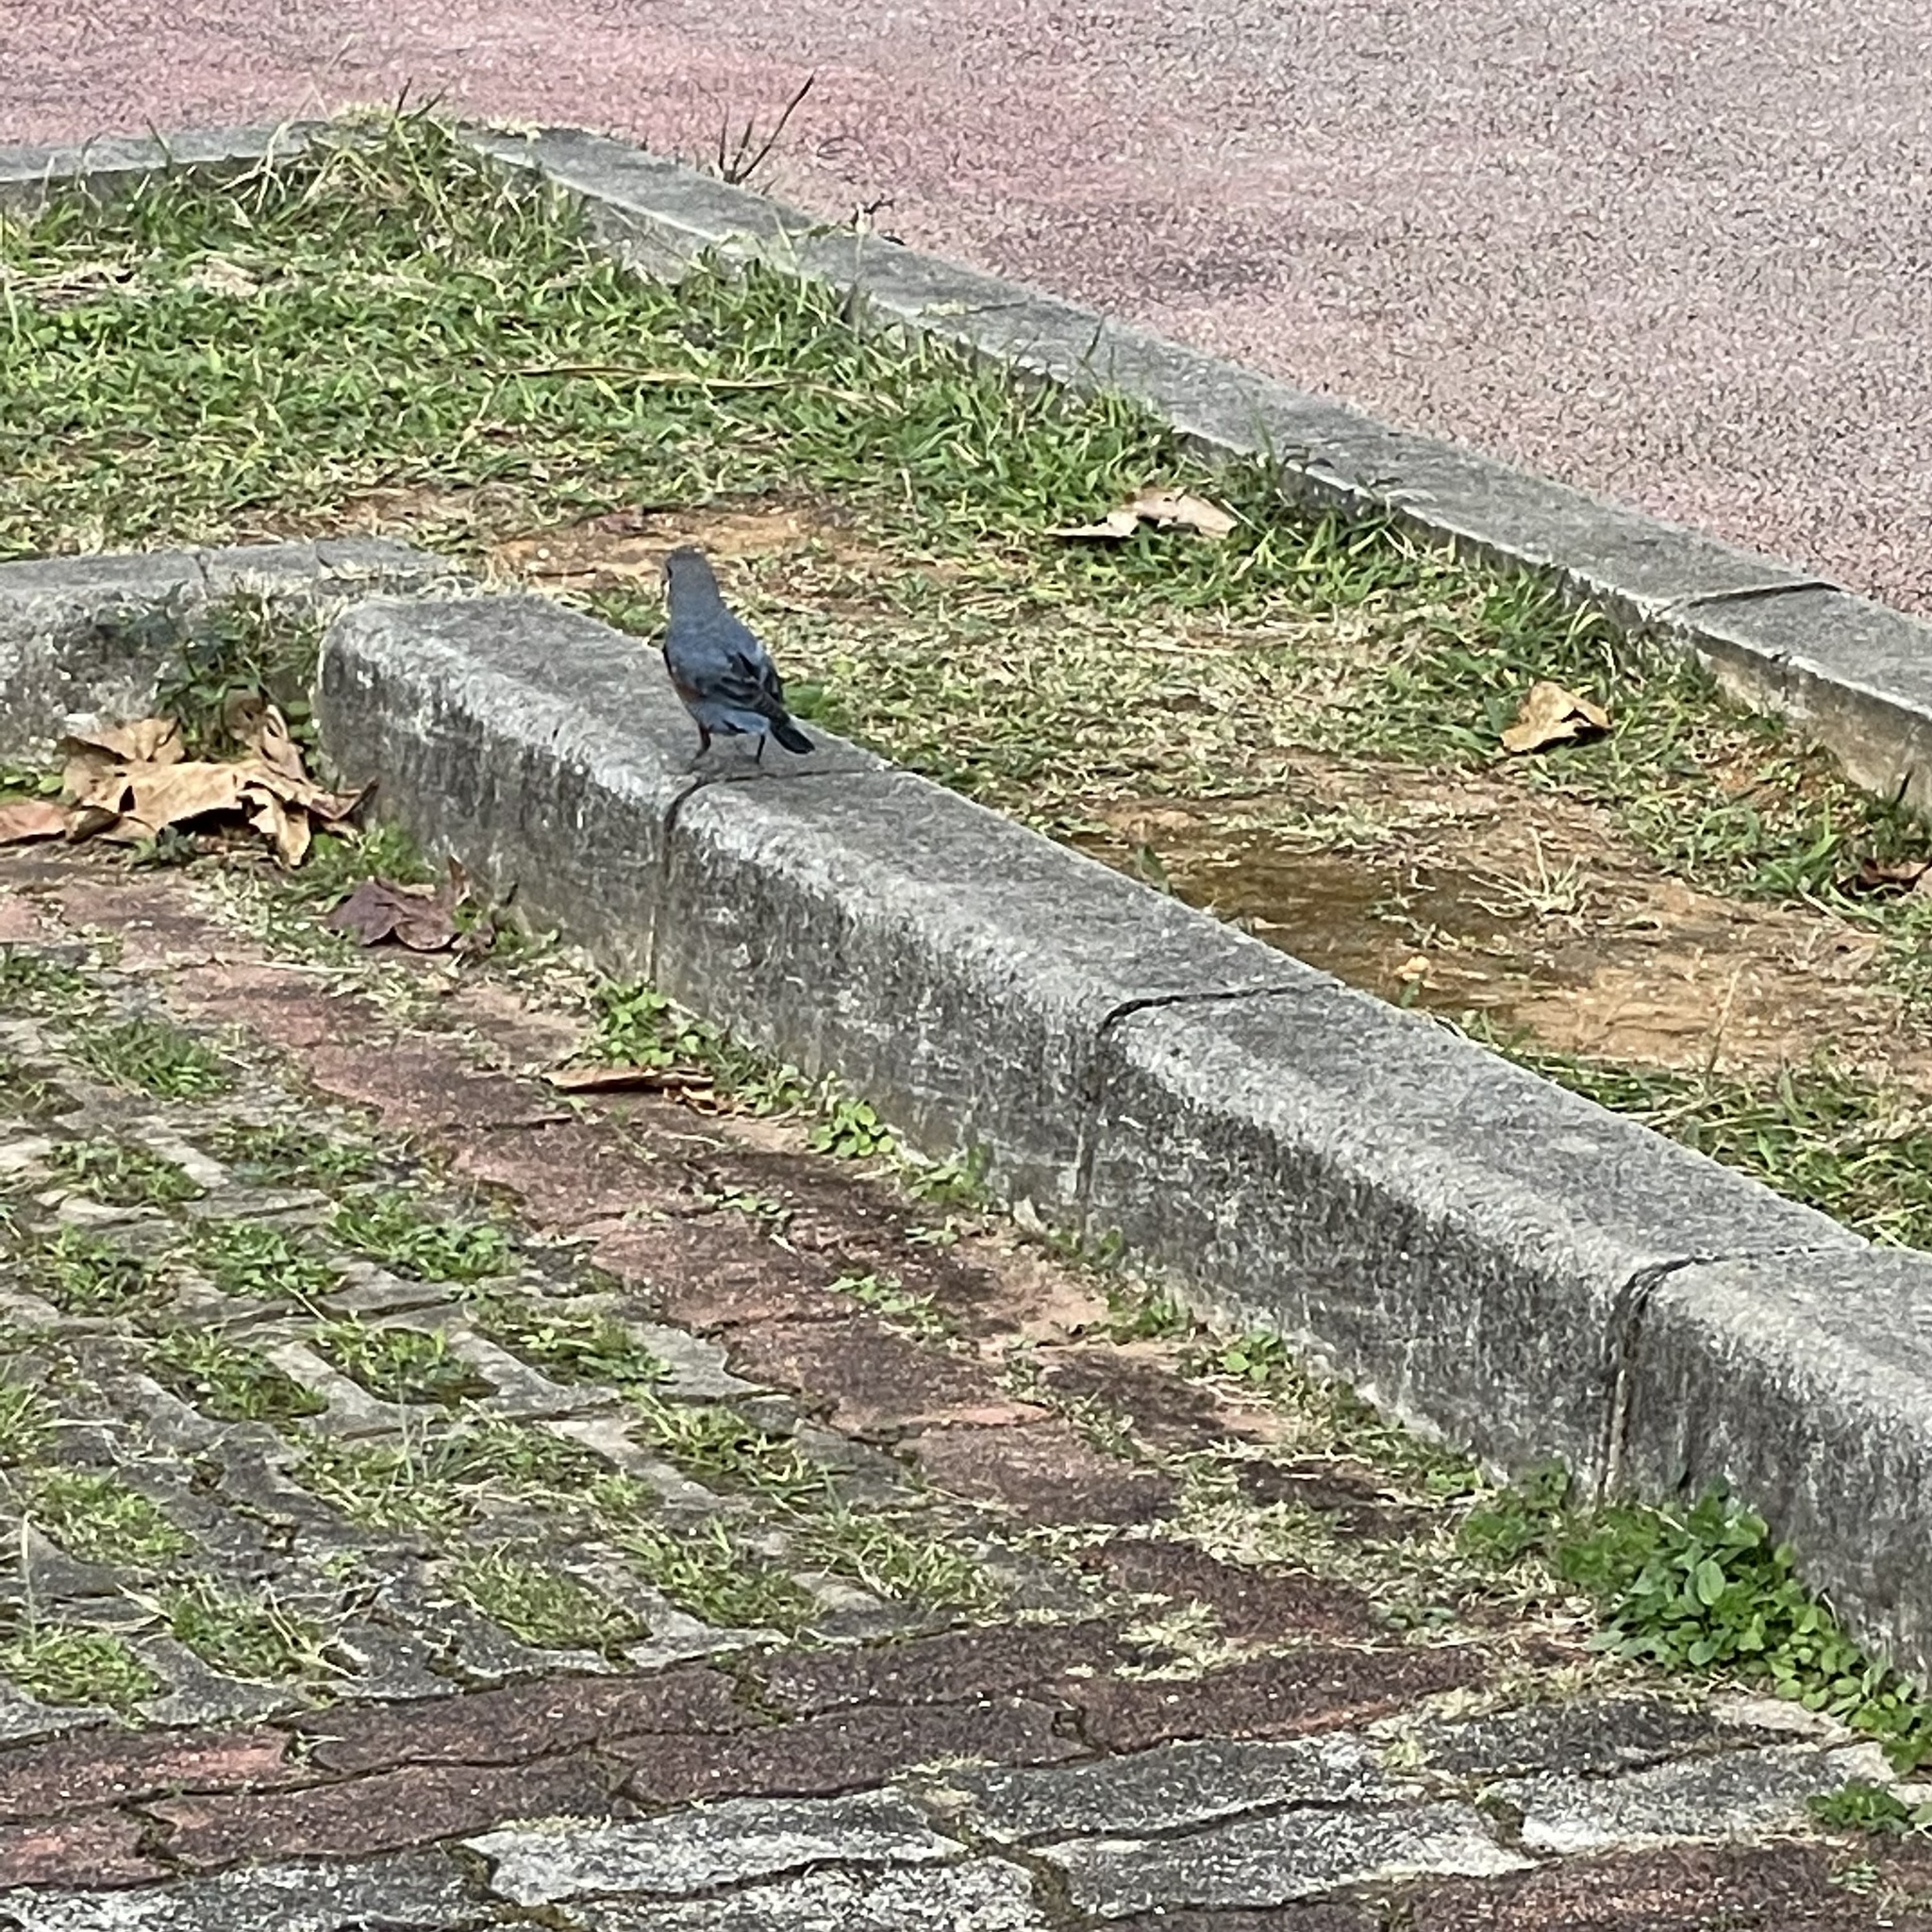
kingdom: Animalia
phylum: Chordata
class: Aves
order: Passeriformes
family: Muscicapidae
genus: Monticola
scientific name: Monticola solitarius
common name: Blue rock thrush
